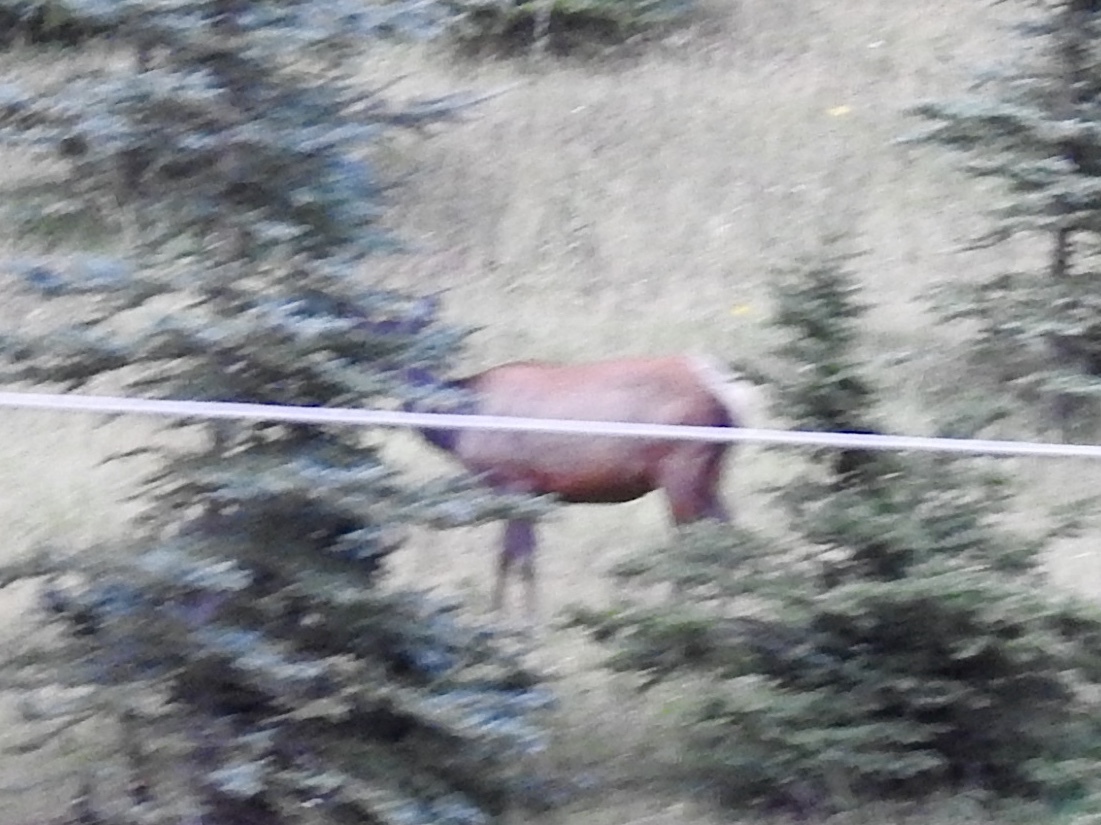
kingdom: Animalia
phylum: Chordata
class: Mammalia
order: Artiodactyla
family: Cervidae
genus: Cervus
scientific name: Cervus elaphus
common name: Red deer
